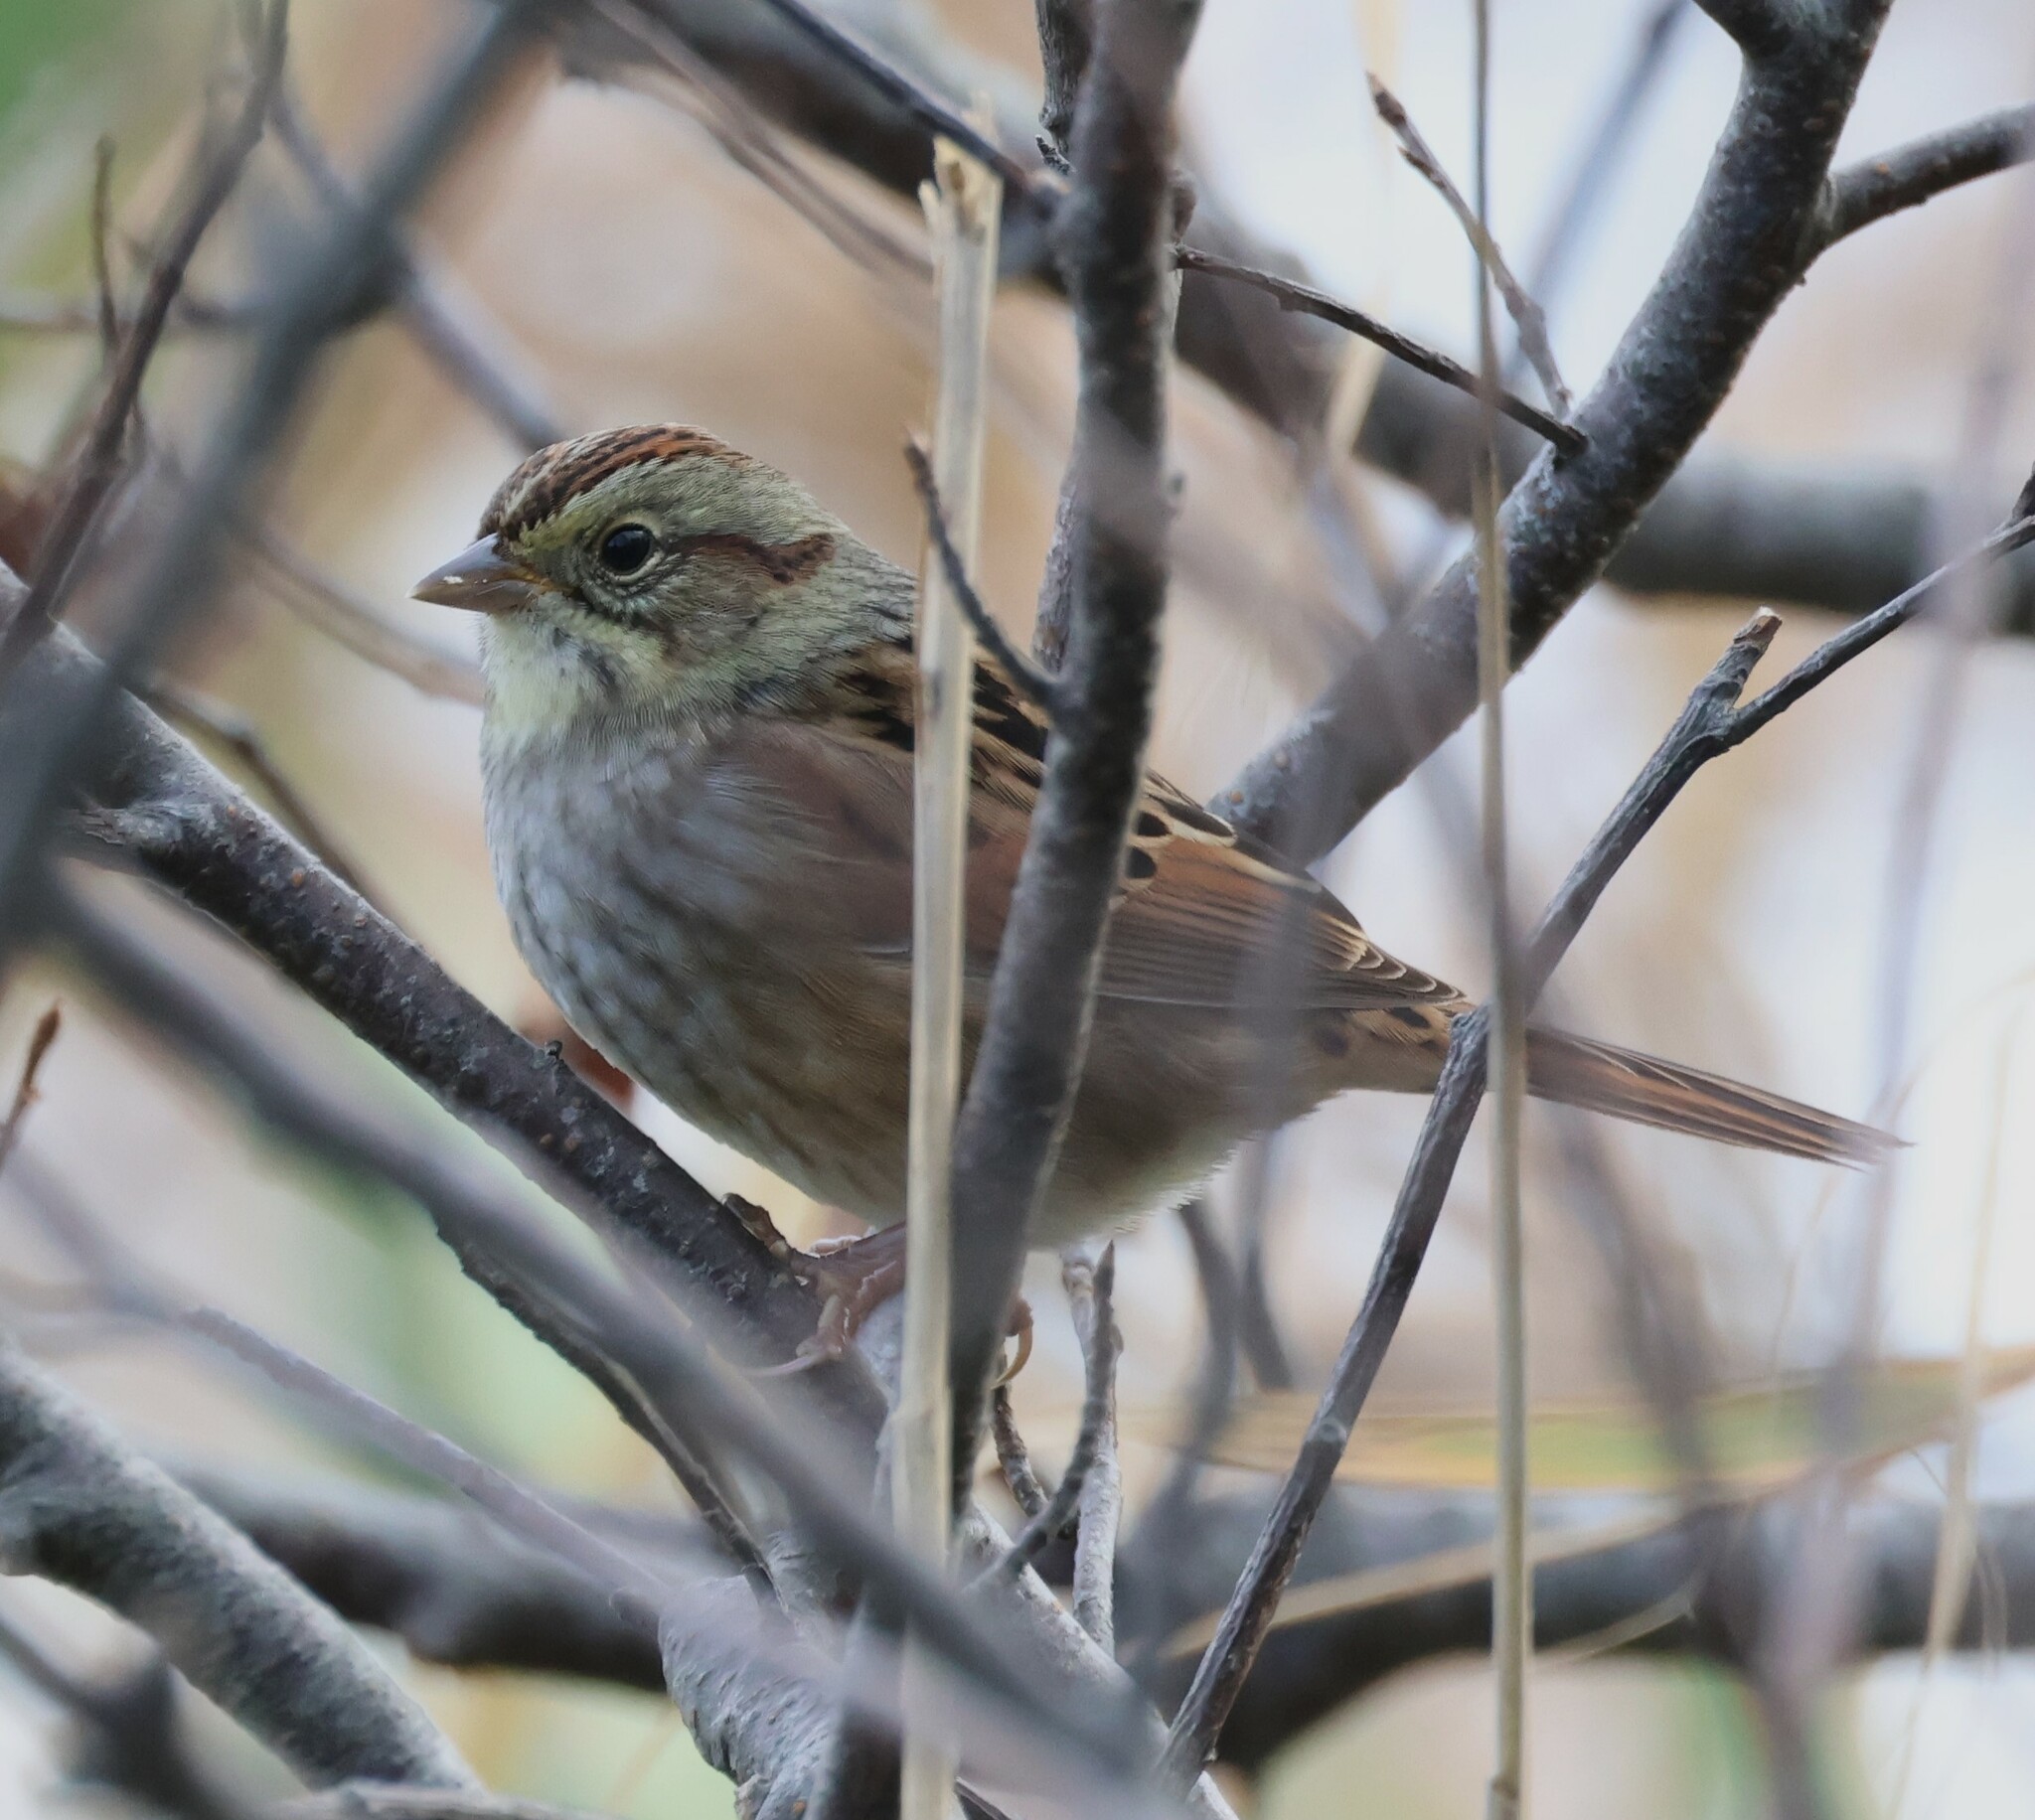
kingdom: Animalia
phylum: Chordata
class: Aves
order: Passeriformes
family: Passerellidae
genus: Melospiza
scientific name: Melospiza georgiana
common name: Swamp sparrow
